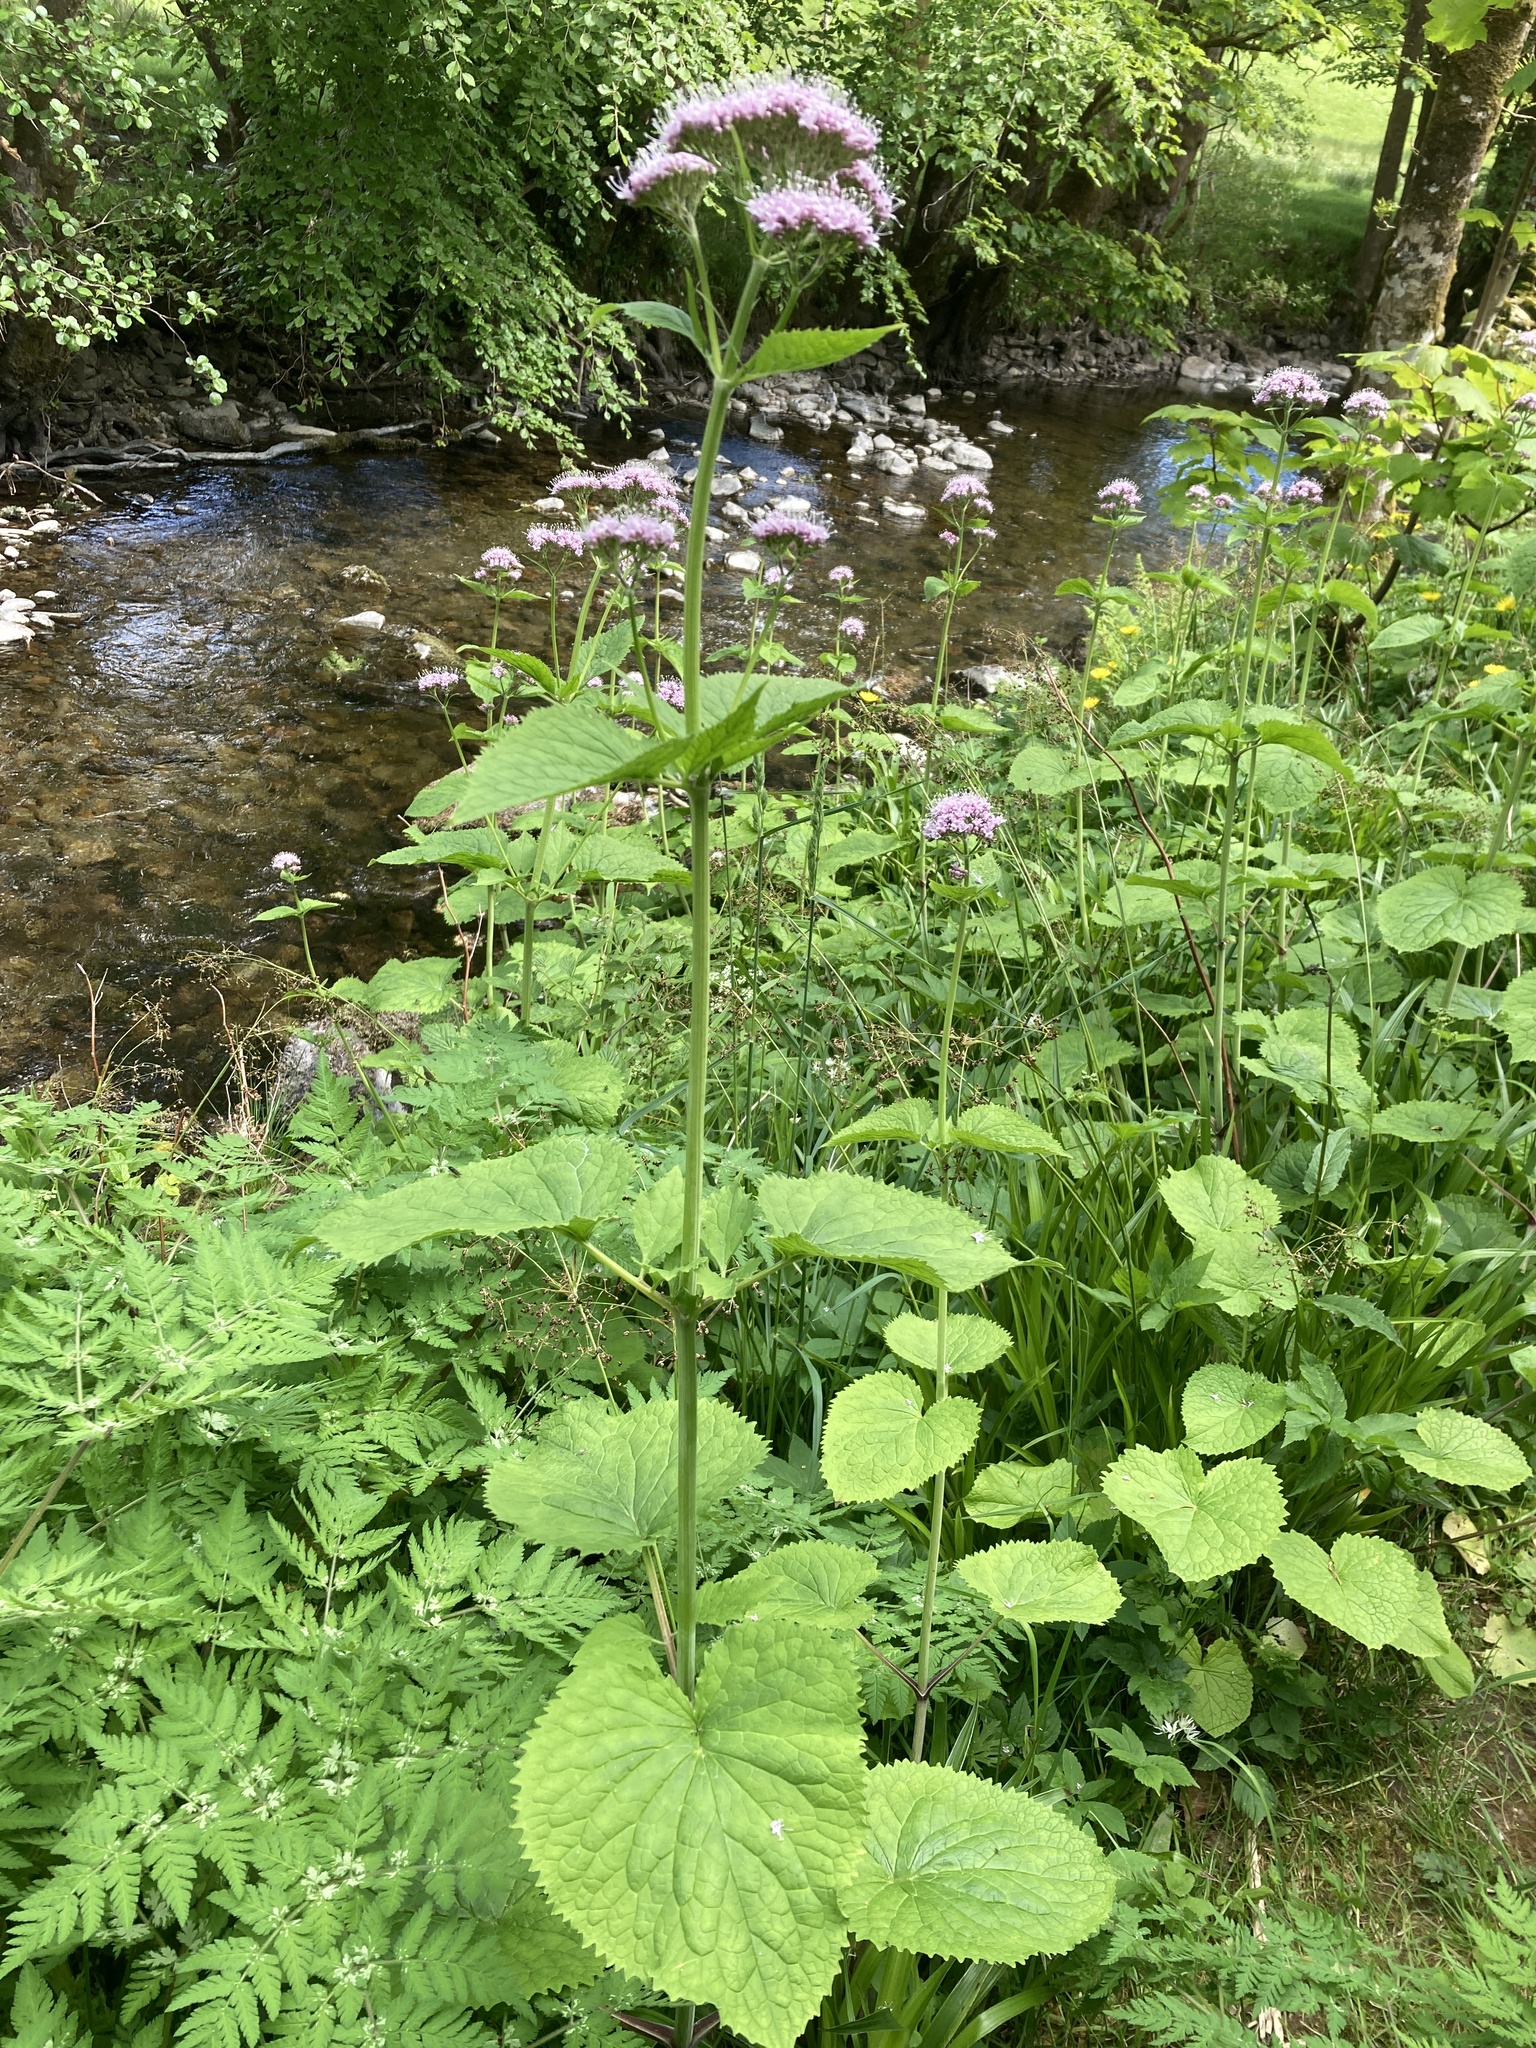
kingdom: Plantae
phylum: Tracheophyta
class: Magnoliopsida
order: Dipsacales
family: Caprifoliaceae
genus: Valeriana
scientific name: Valeriana pyrenaica
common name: Pyrenean valerian
